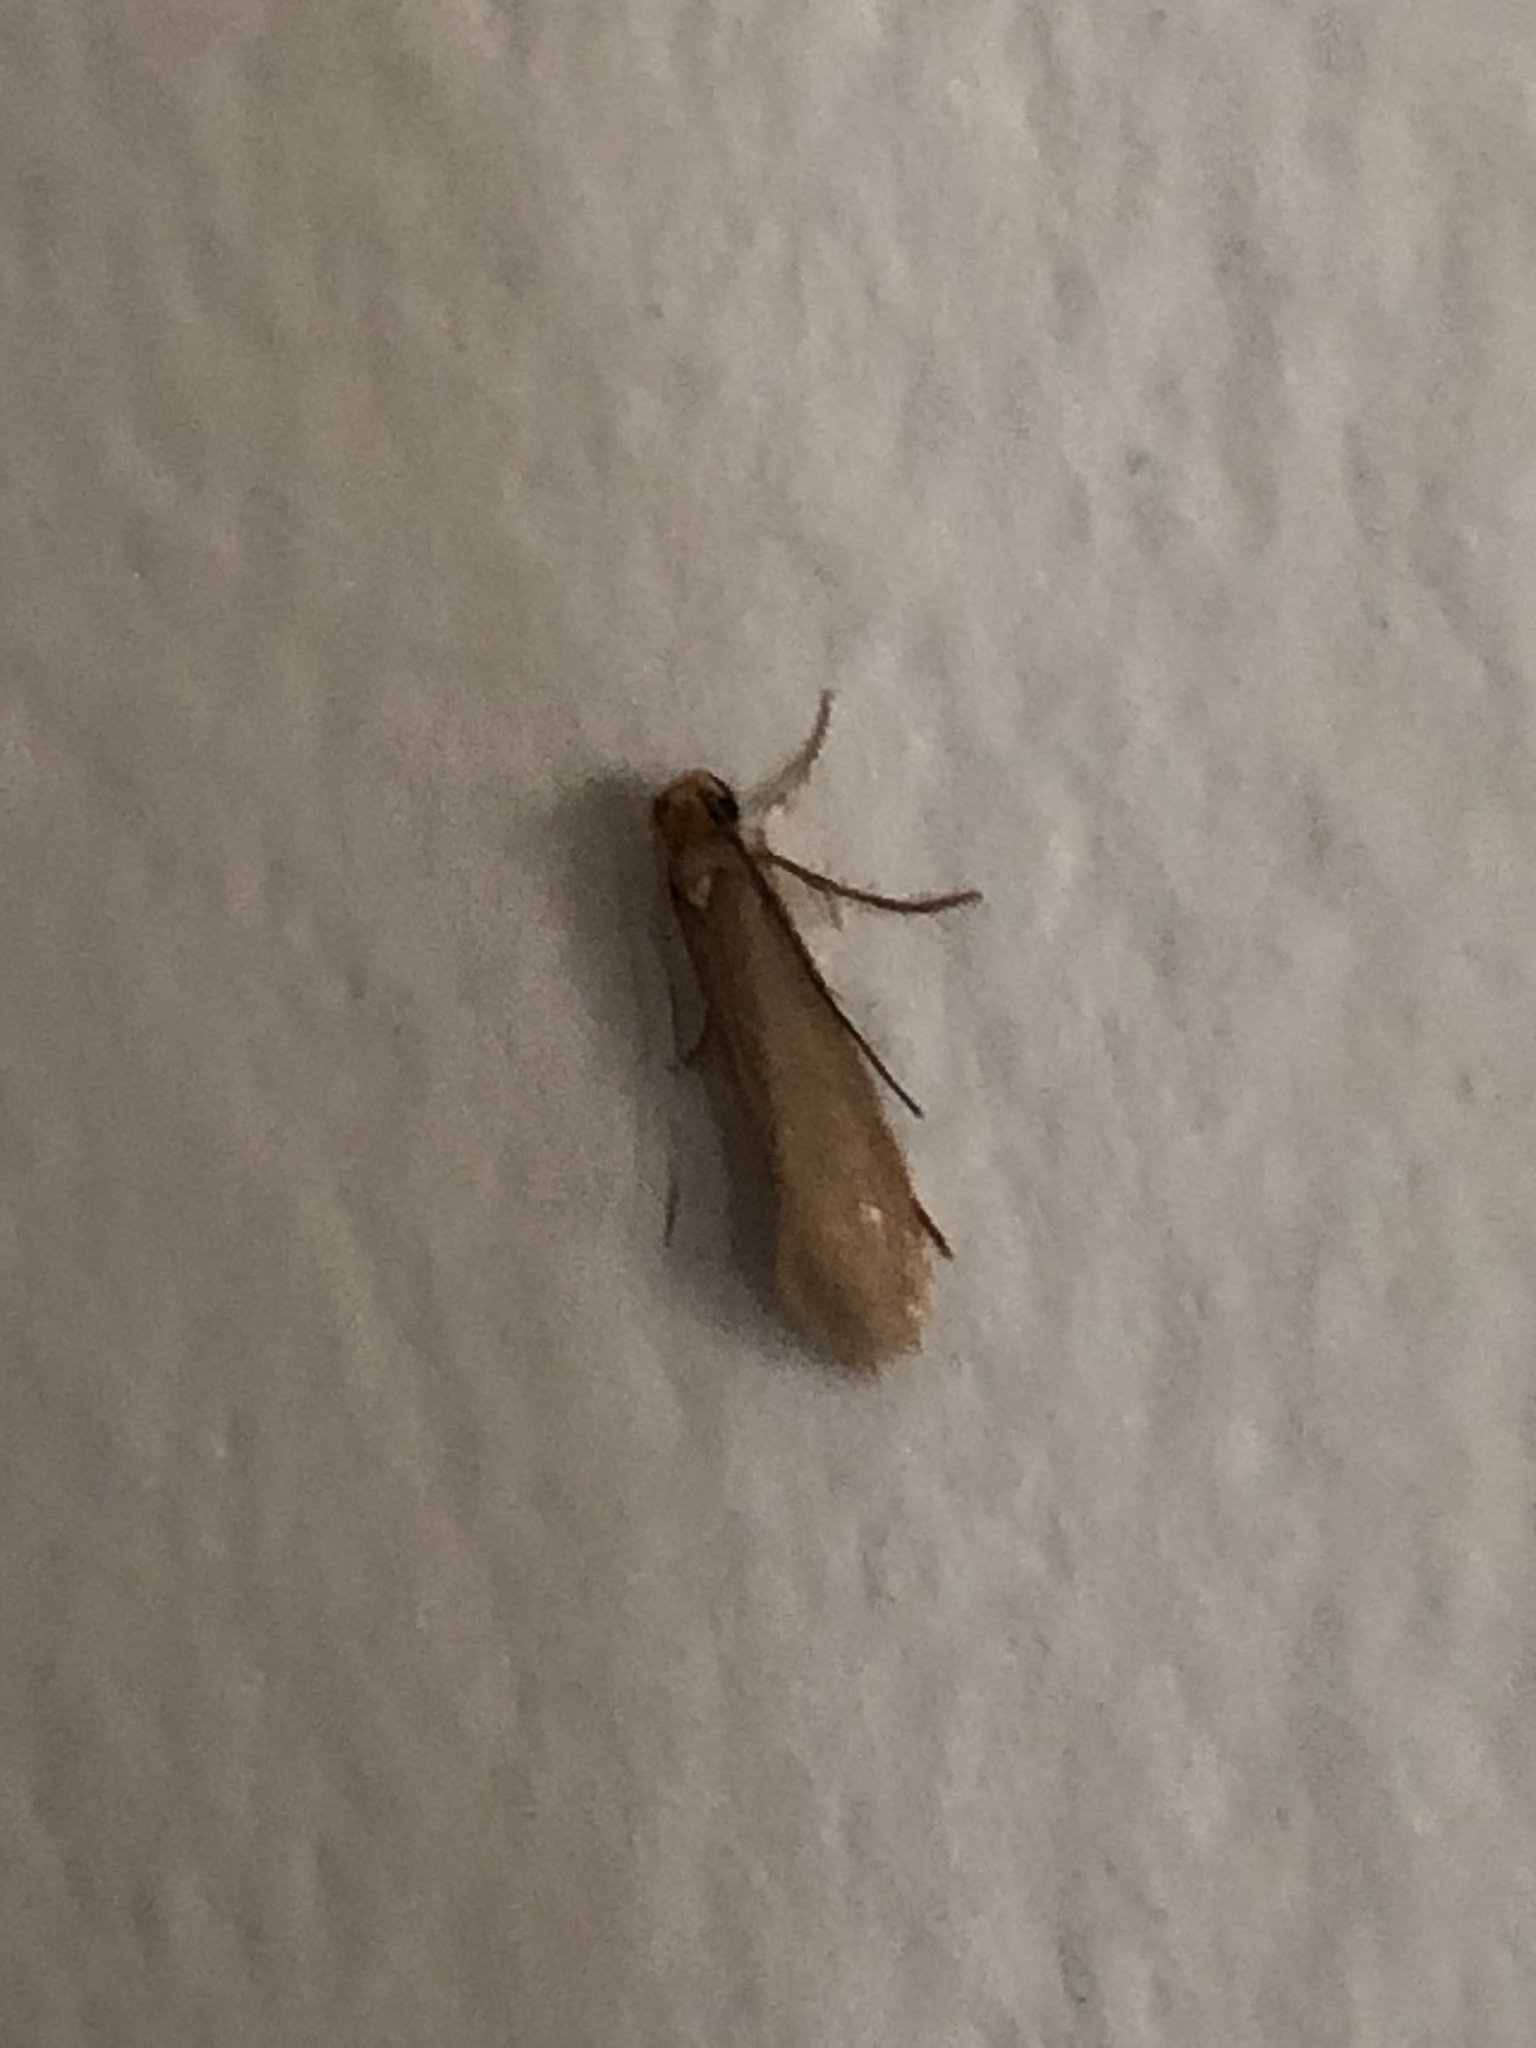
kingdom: Animalia
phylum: Arthropoda
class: Insecta
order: Lepidoptera
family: Tineidae
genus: Tineola
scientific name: Tineola bisselliella
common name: Webbing clothes moth
